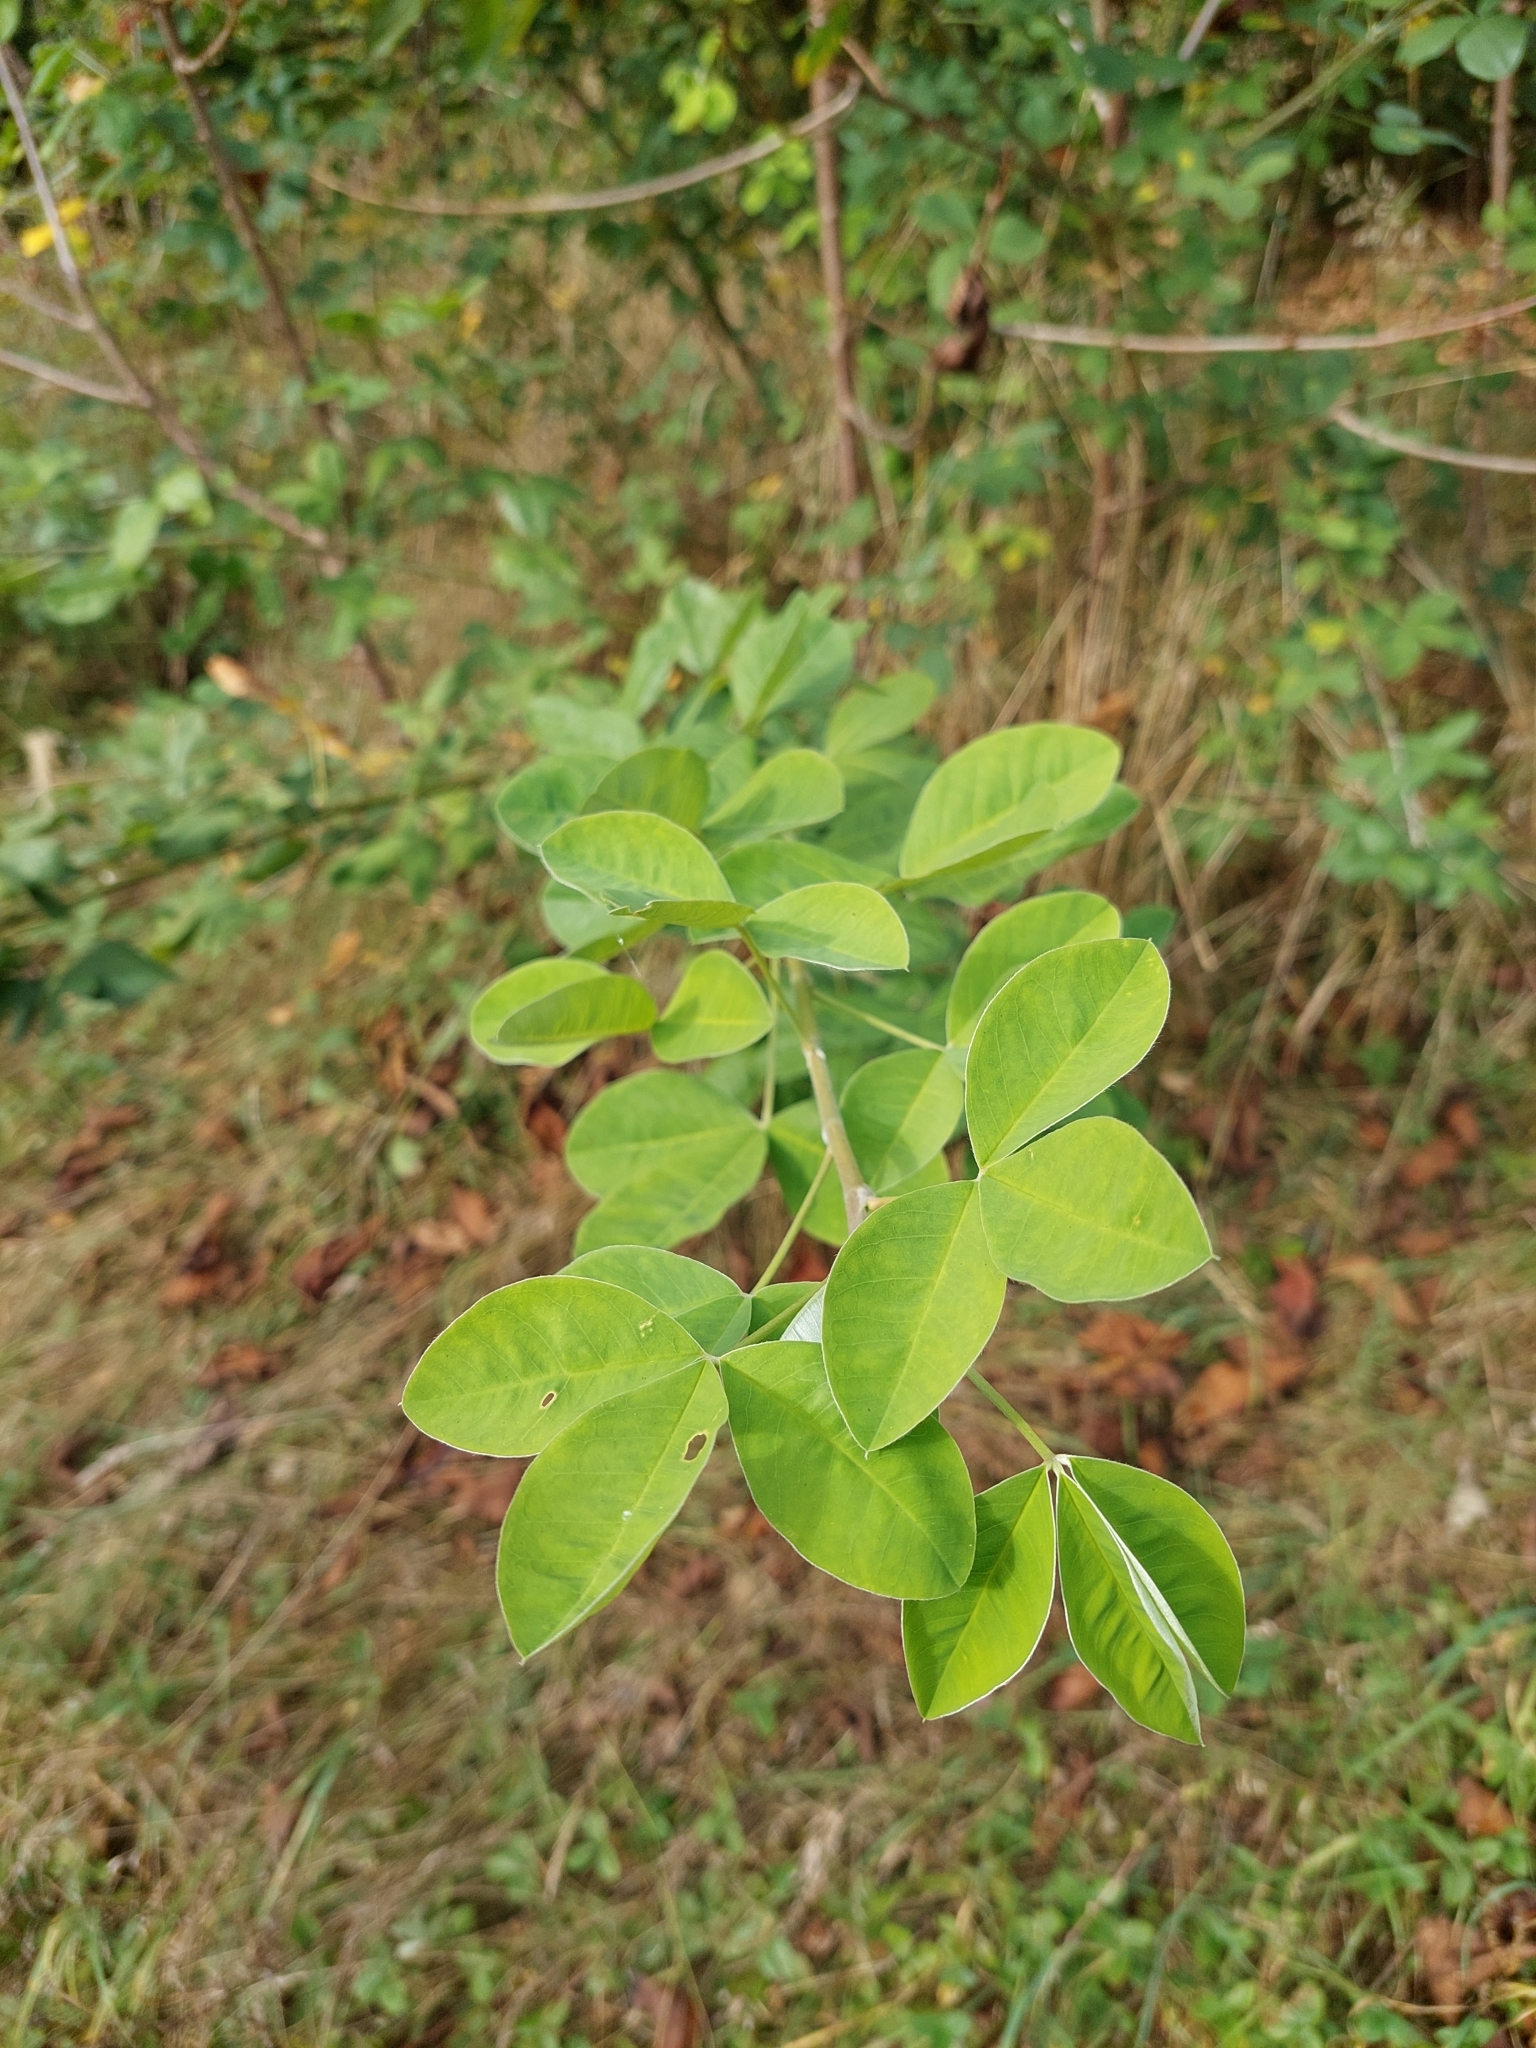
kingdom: Plantae
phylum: Tracheophyta
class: Magnoliopsida
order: Fabales
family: Fabaceae
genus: Laburnum
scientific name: Laburnum anagyroides
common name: Laburnum
